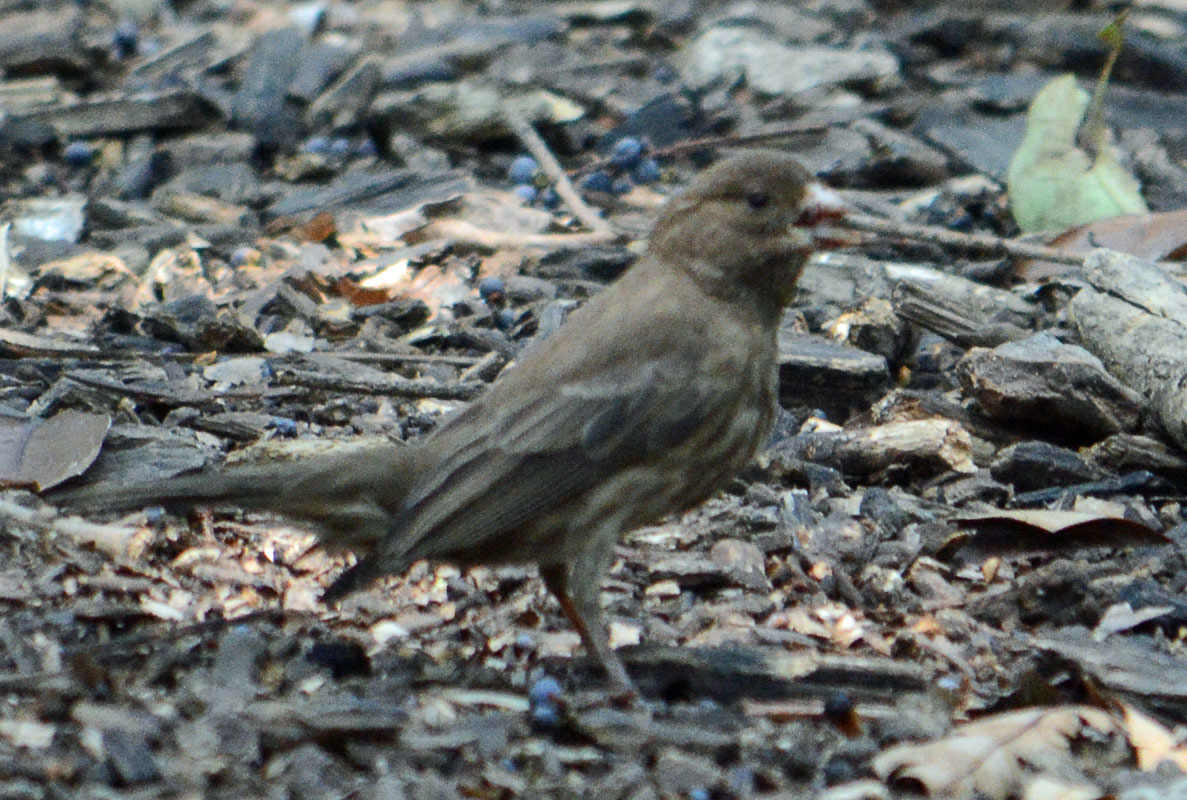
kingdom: Animalia
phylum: Chordata
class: Aves
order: Passeriformes
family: Fringillidae
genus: Haemorhous
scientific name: Haemorhous mexicanus
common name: House finch
